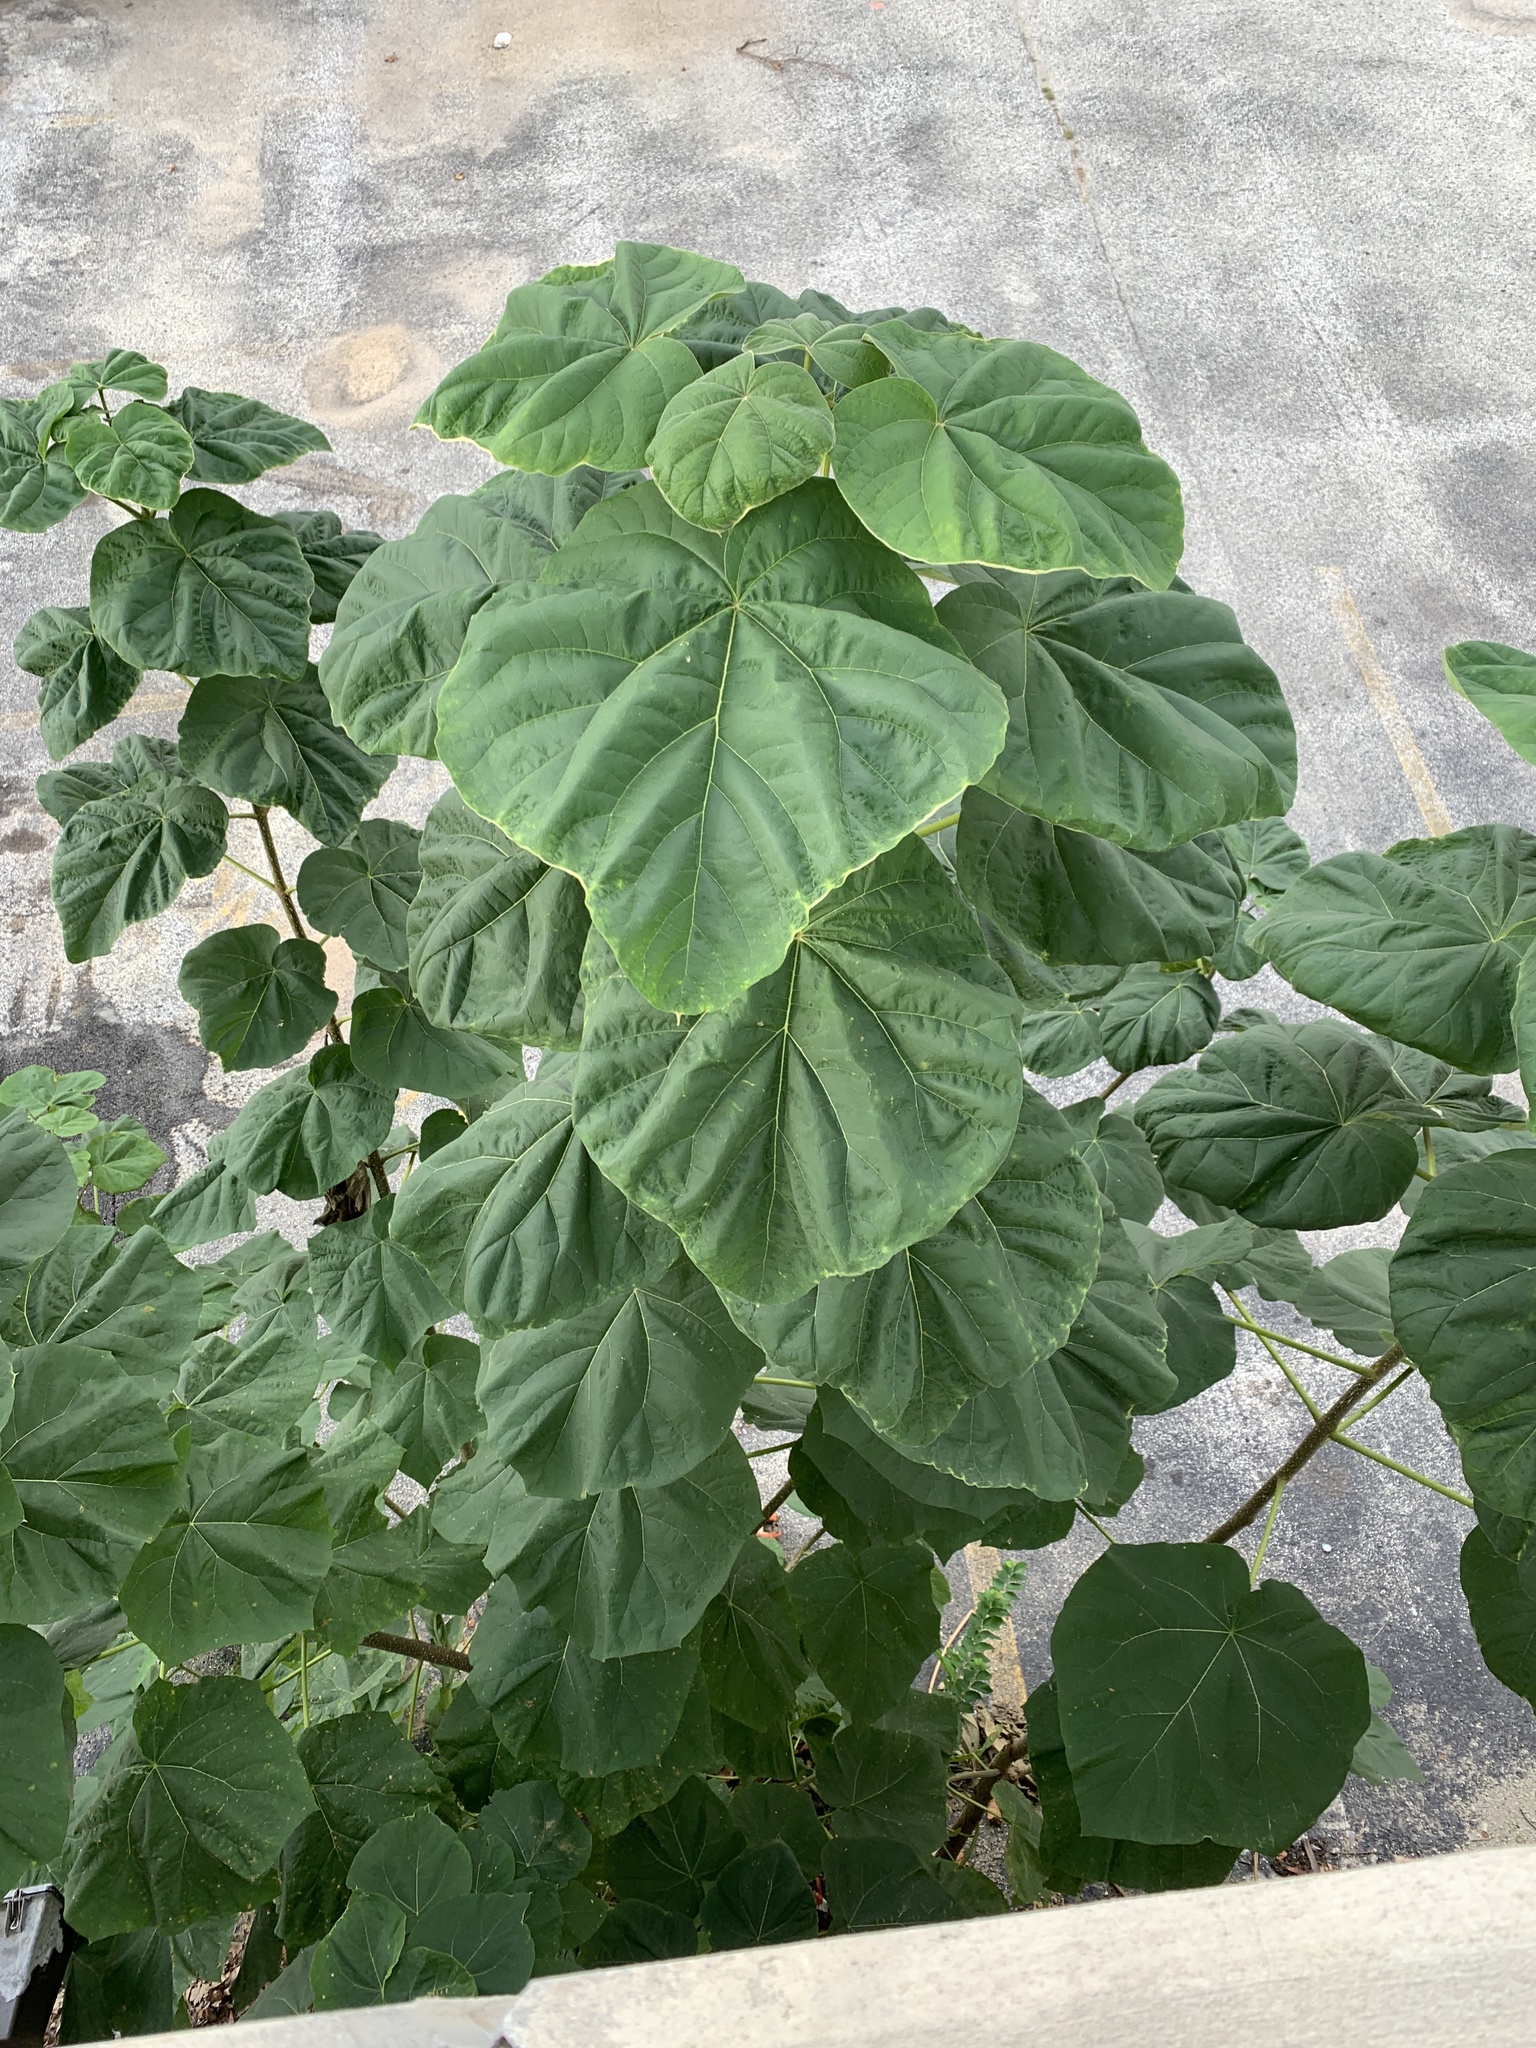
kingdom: Plantae
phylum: Tracheophyta
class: Magnoliopsida
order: Lamiales
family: Paulowniaceae
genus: Paulownia
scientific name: Paulownia tomentosa
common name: Foxglove-tree
